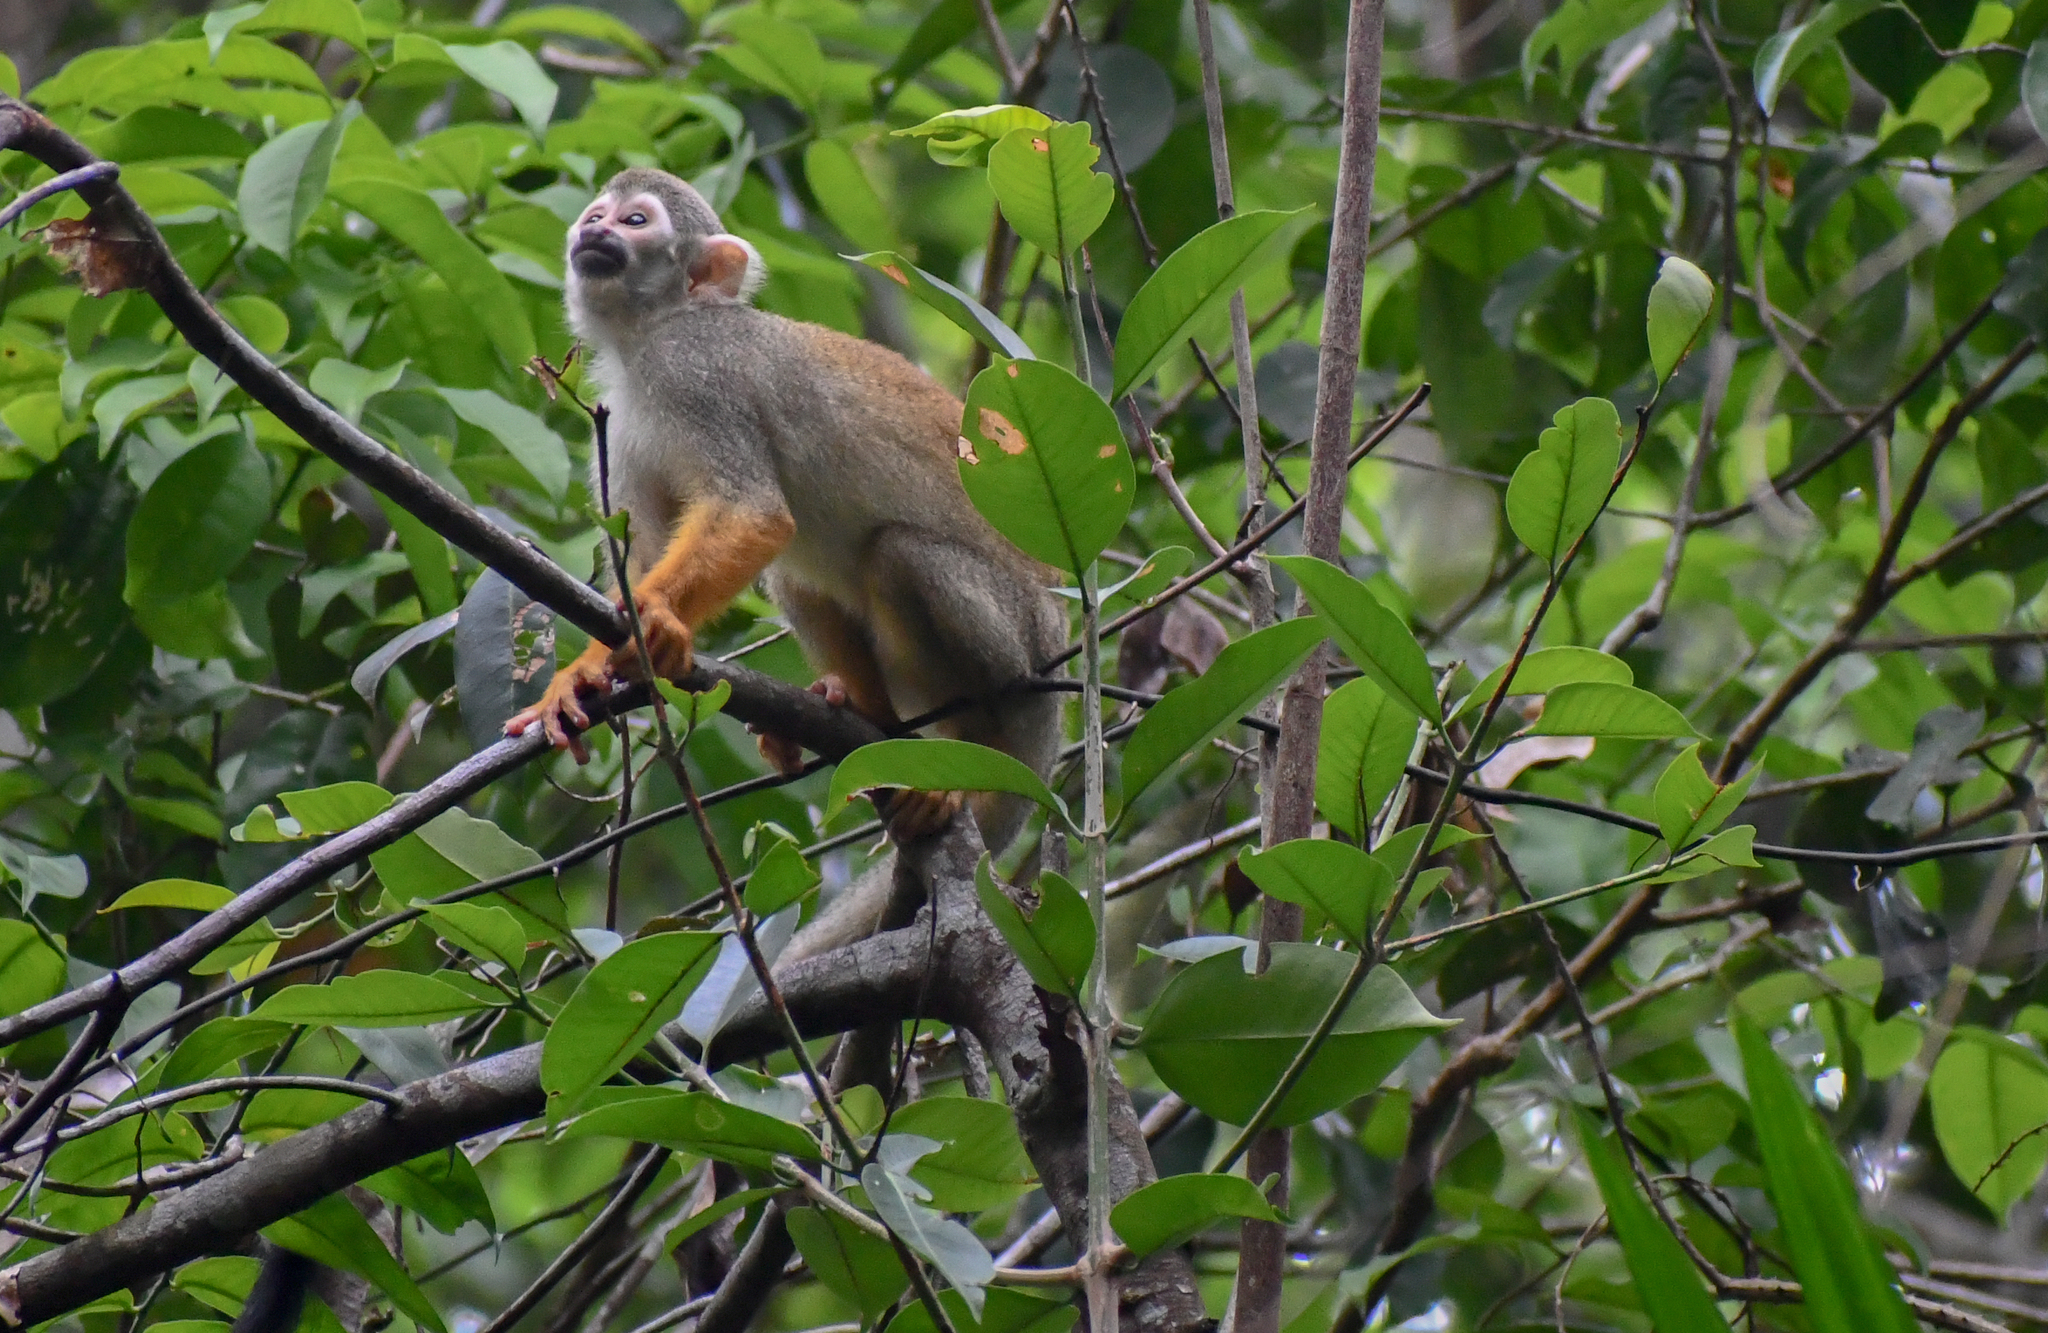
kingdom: Animalia
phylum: Chordata
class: Mammalia
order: Primates
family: Cebidae
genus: Saimiri
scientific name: Saimiri sciureus
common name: Common squirrel monkey
